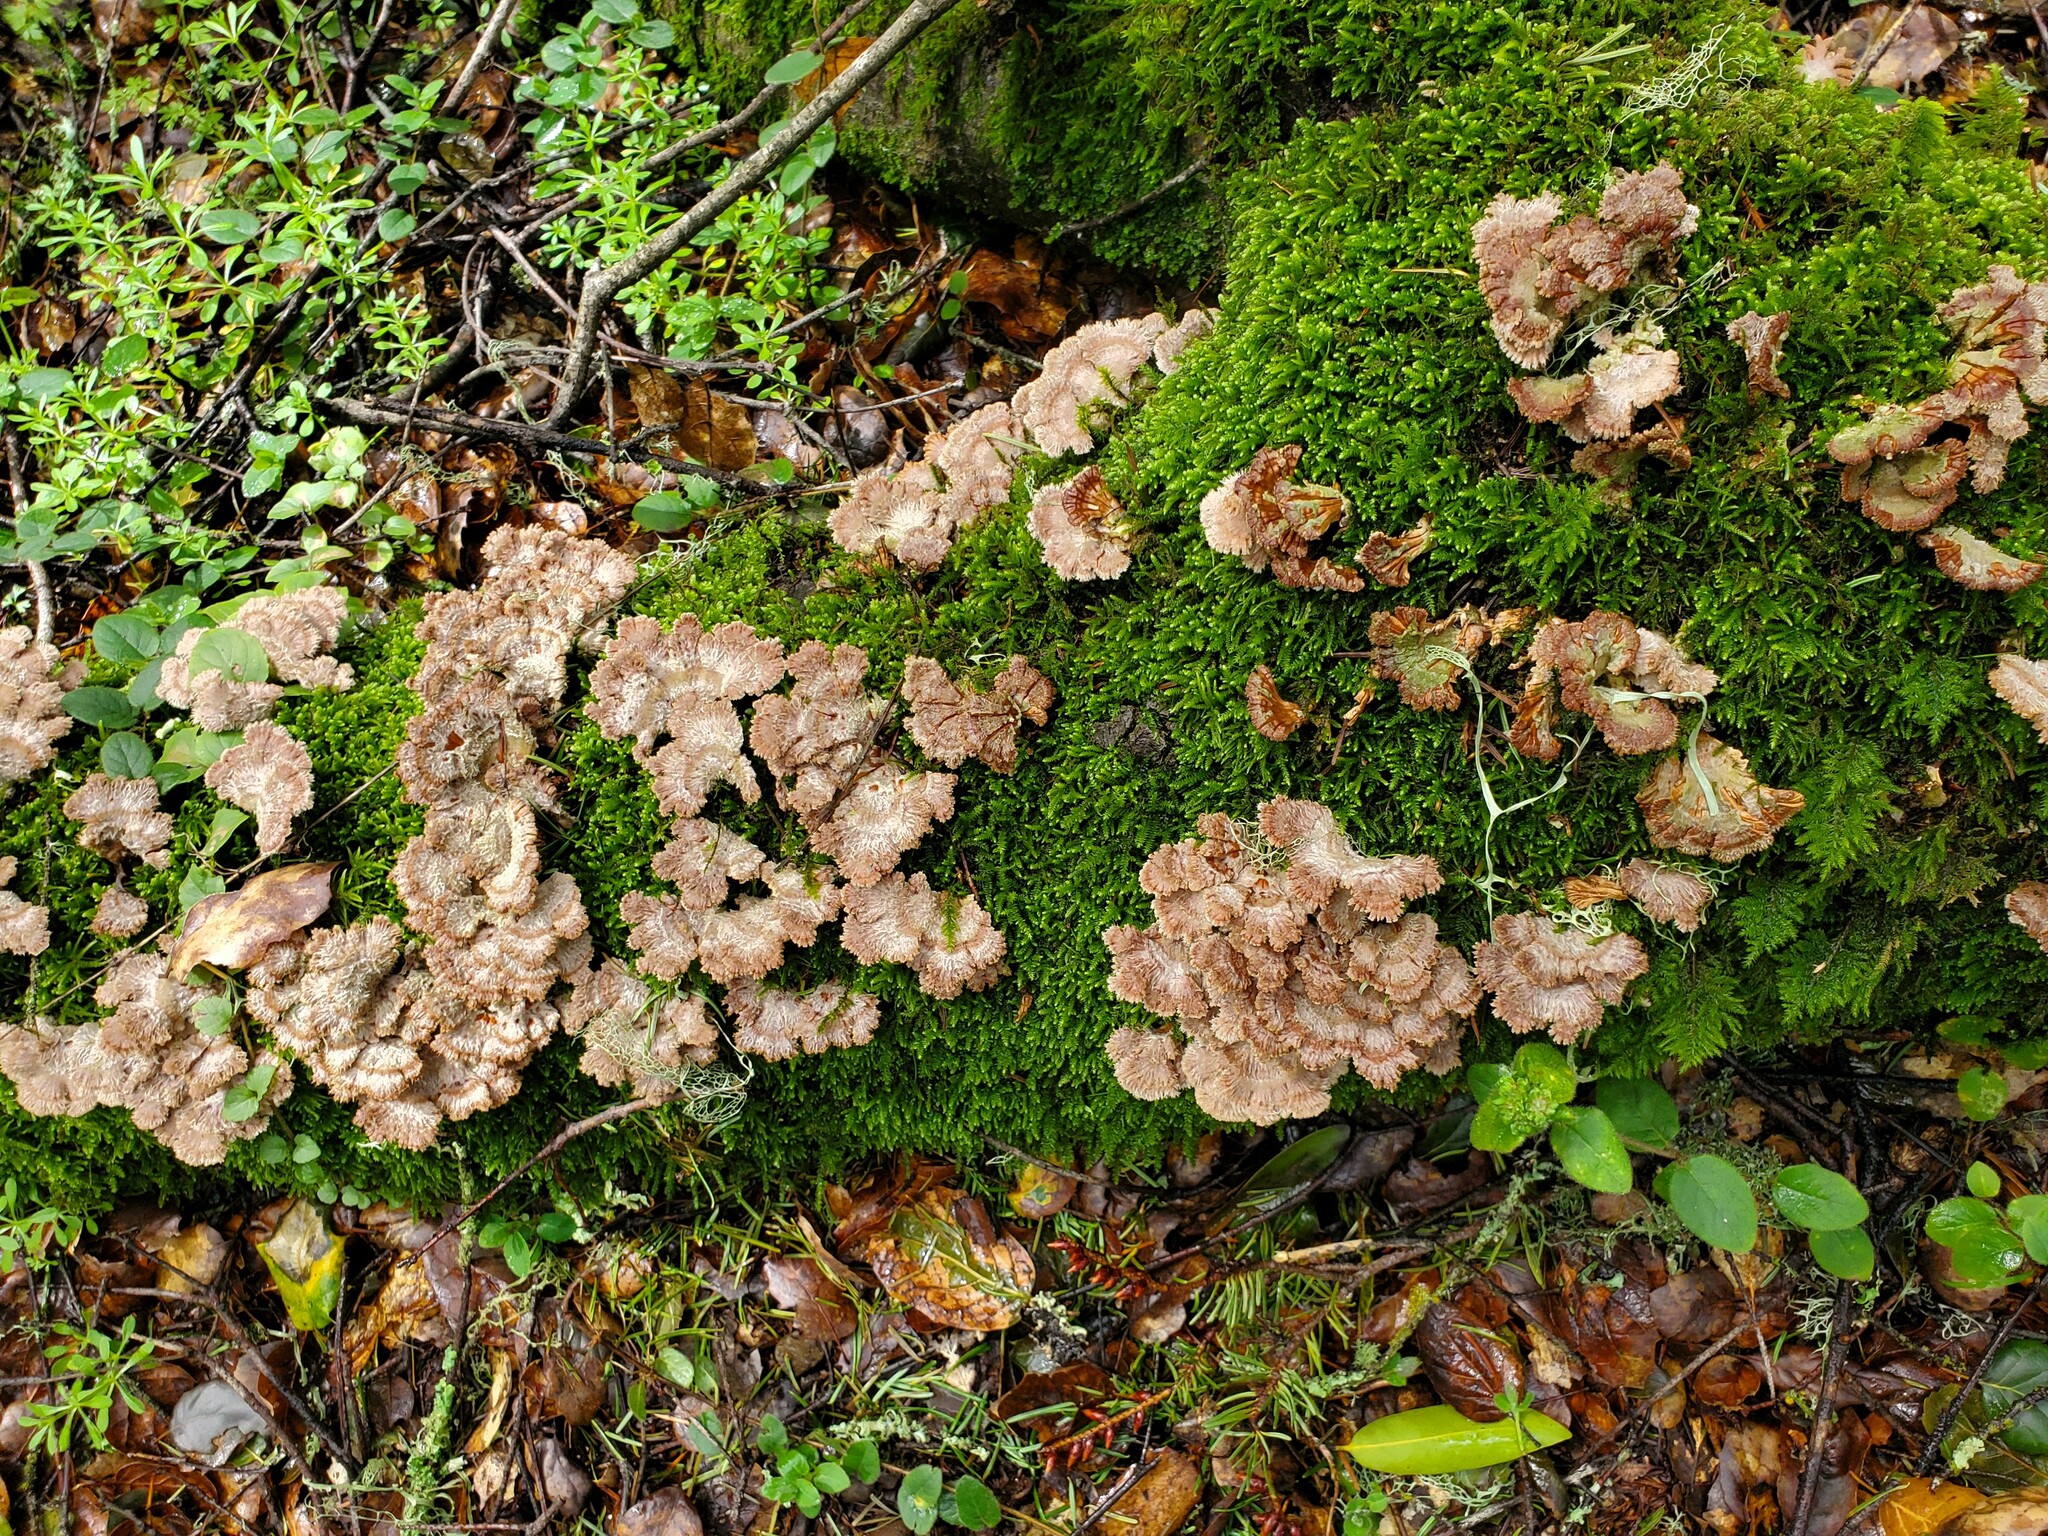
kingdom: Fungi
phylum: Basidiomycota
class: Agaricomycetes
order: Agaricales
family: Schizophyllaceae
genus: Schizophyllum
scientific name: Schizophyllum commune
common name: Common porecrust
